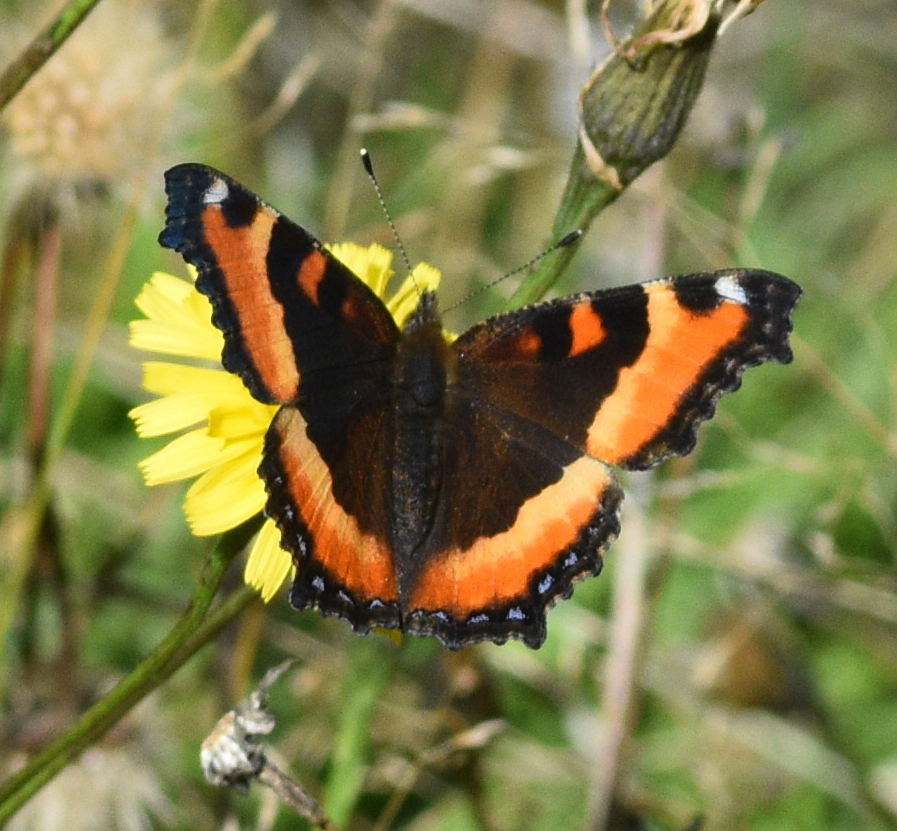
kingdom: Animalia
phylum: Arthropoda
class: Insecta
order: Lepidoptera
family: Nymphalidae
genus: Aglais
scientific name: Aglais milberti
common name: Milbert's tortoiseshell
